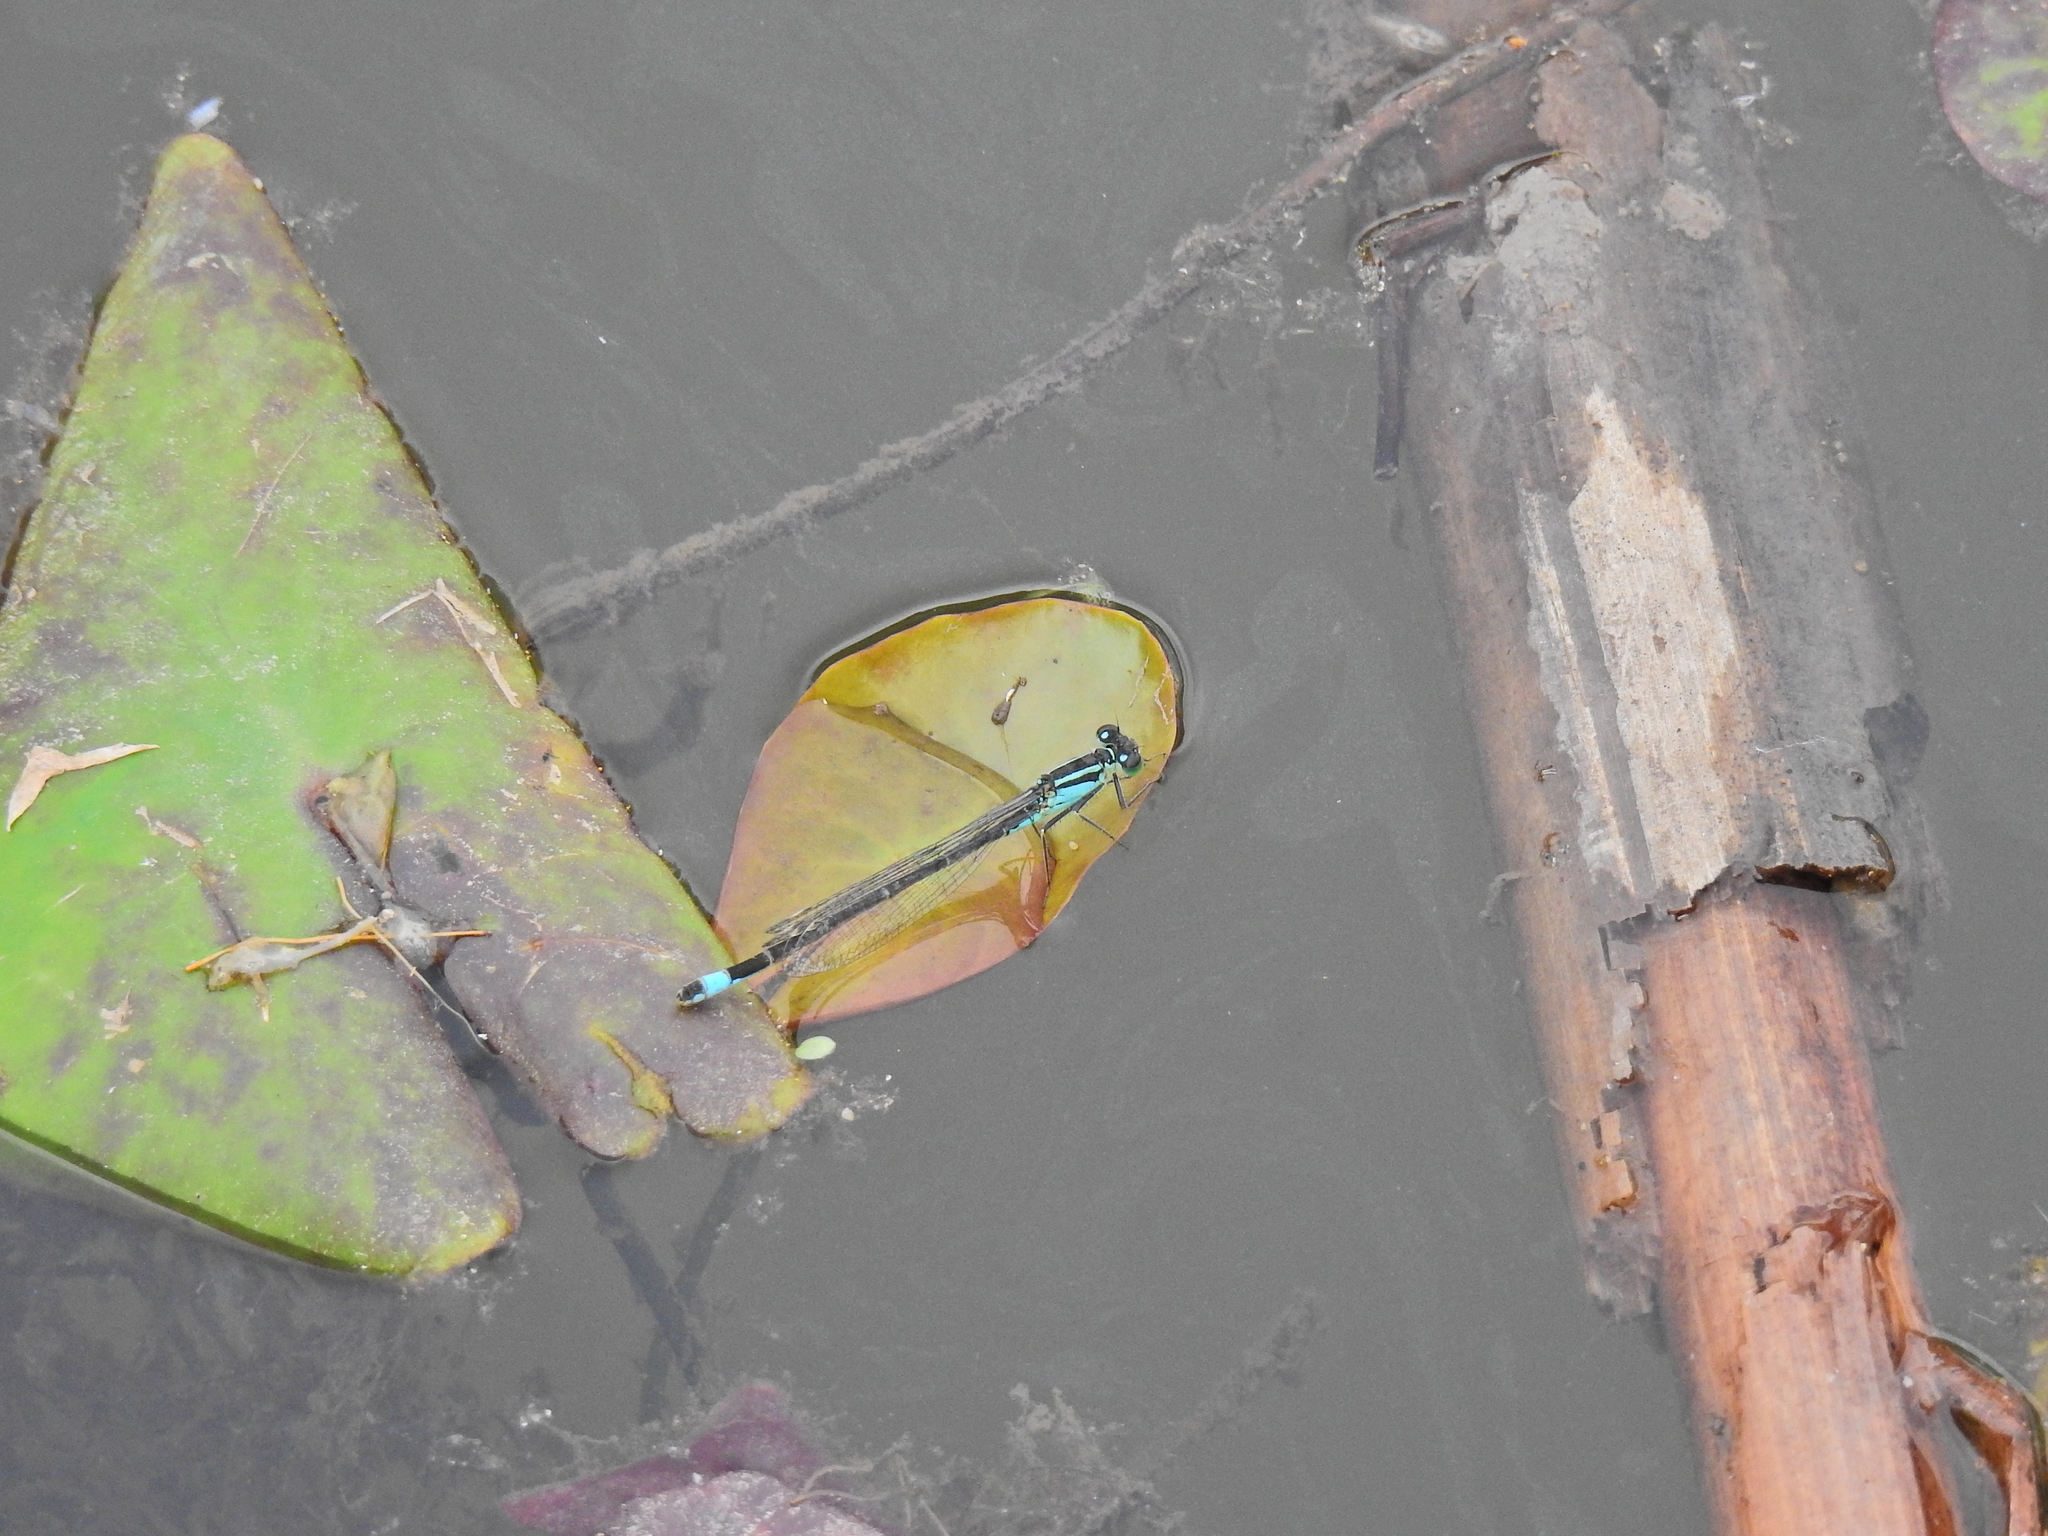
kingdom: Animalia
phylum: Arthropoda
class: Insecta
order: Odonata
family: Coenagrionidae
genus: Ischnura
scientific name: Ischnura elegans
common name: Blue-tailed damselfly
